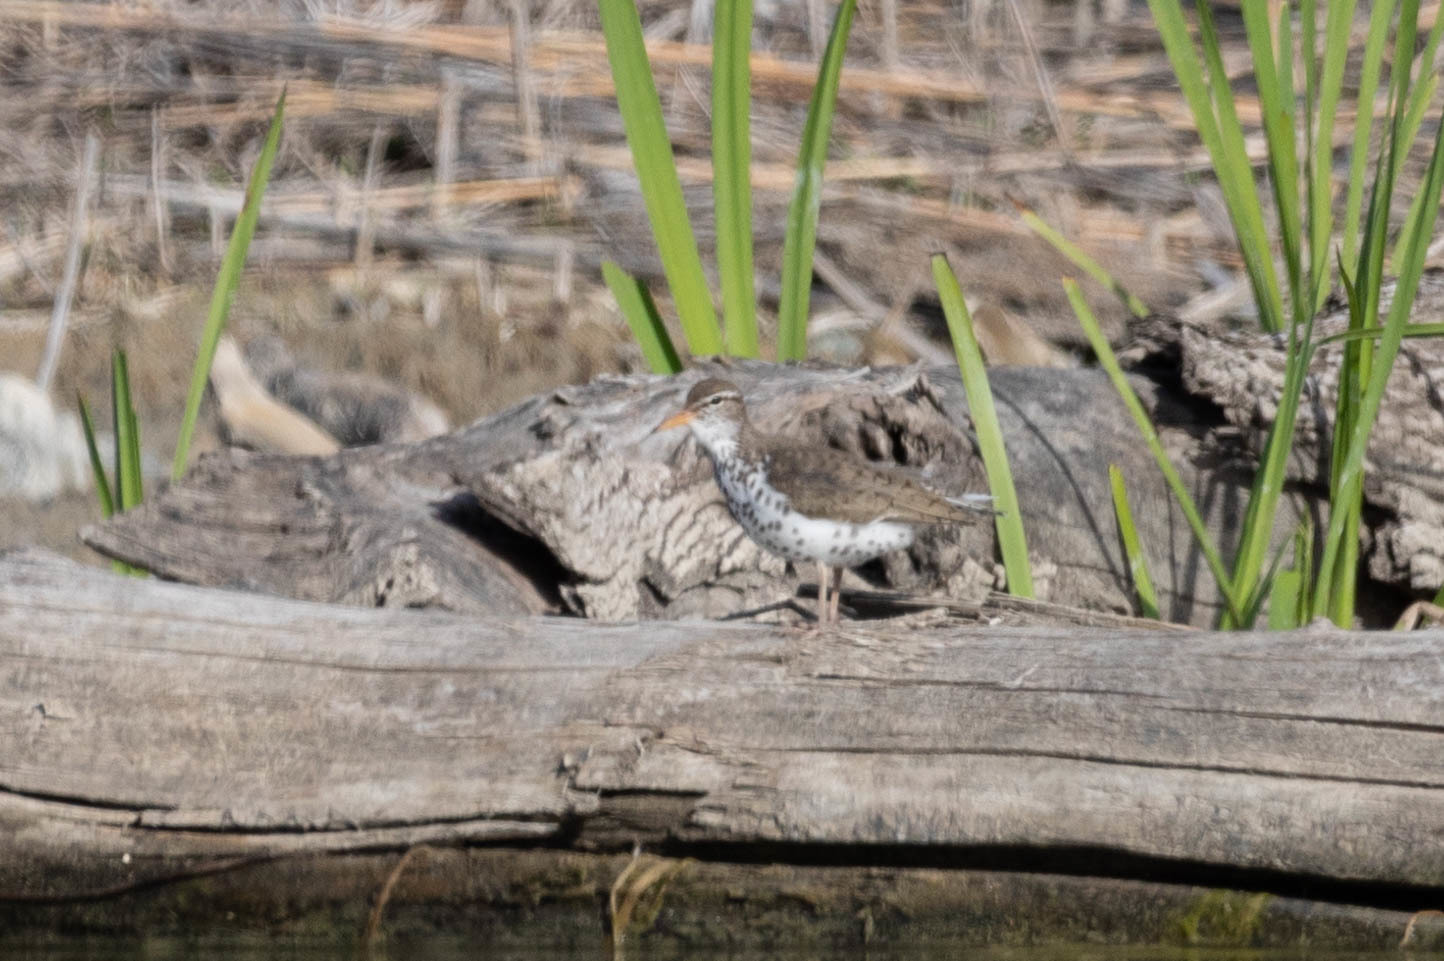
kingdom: Animalia
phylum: Chordata
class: Aves
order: Charadriiformes
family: Scolopacidae
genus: Actitis
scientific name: Actitis macularius
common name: Spotted sandpiper
